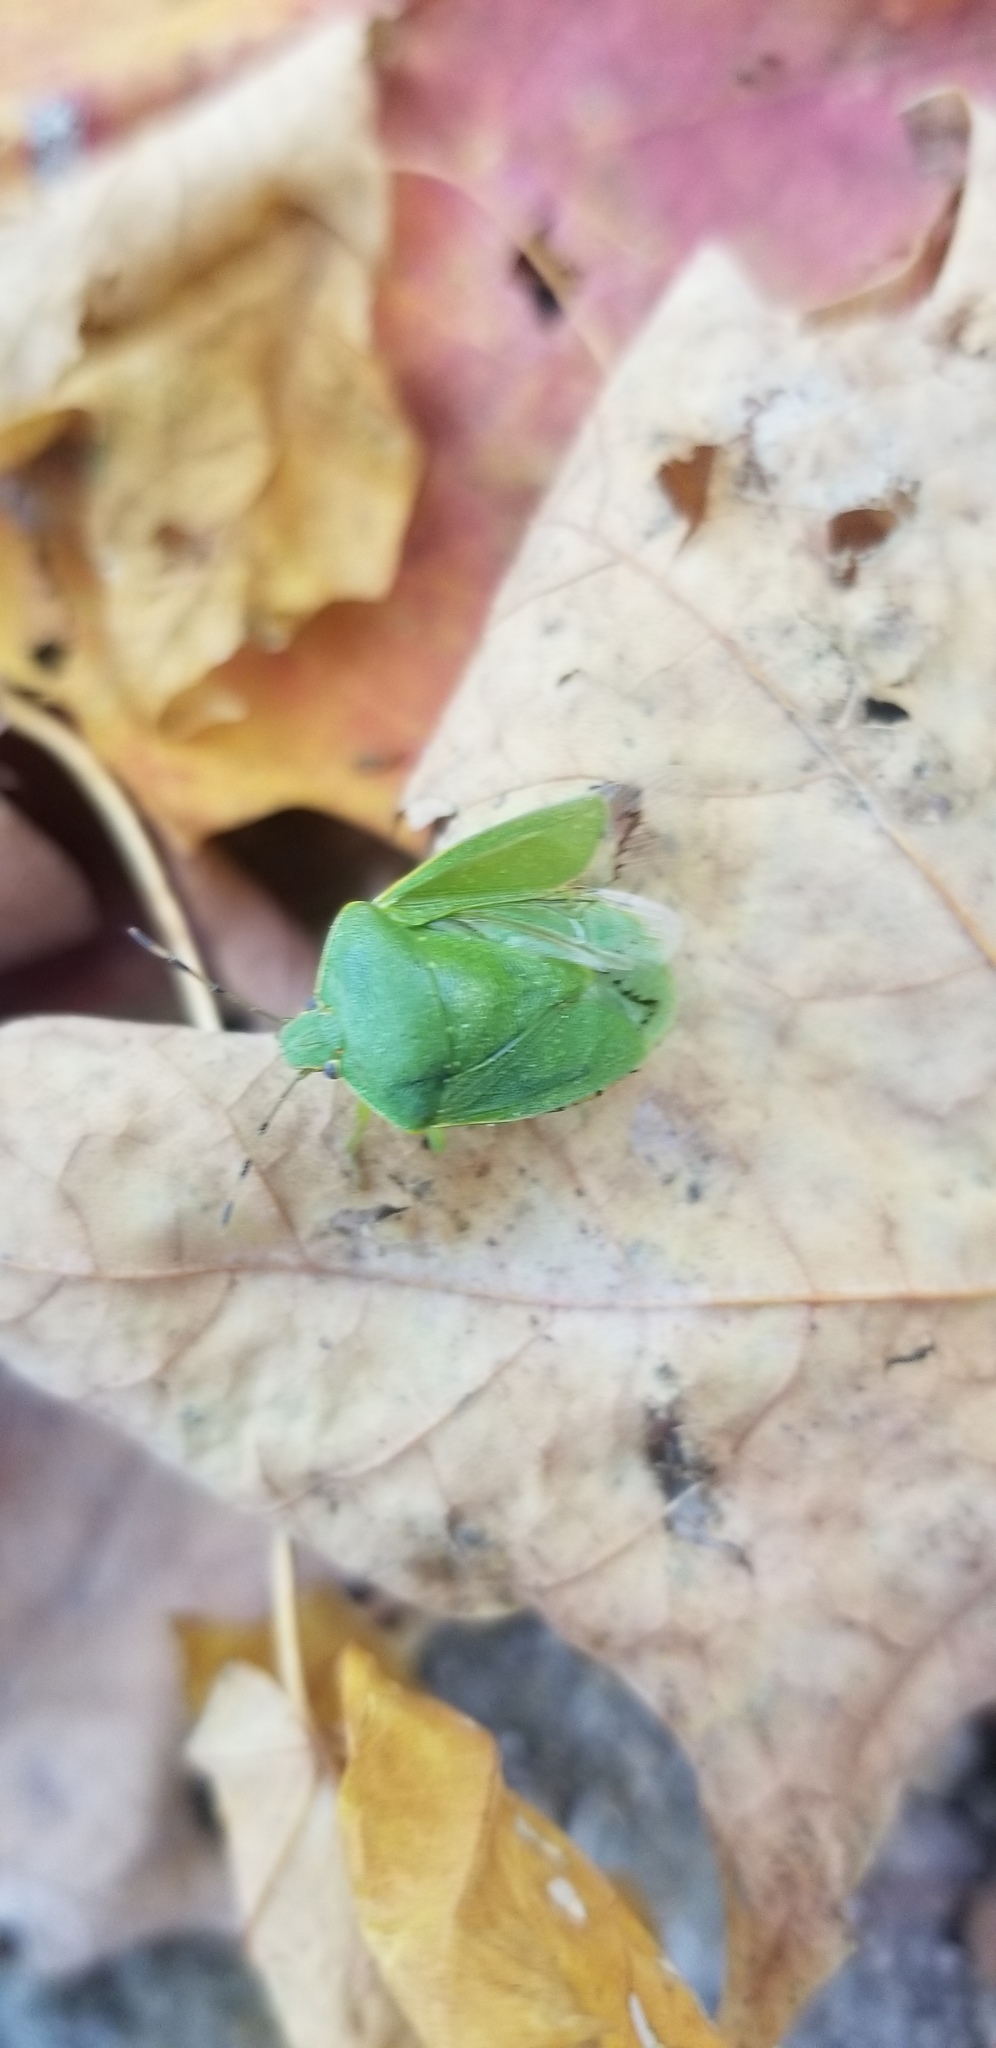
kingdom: Animalia
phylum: Arthropoda
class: Insecta
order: Hemiptera
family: Pentatomidae
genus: Chinavia
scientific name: Chinavia hilaris
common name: Green stink bug
